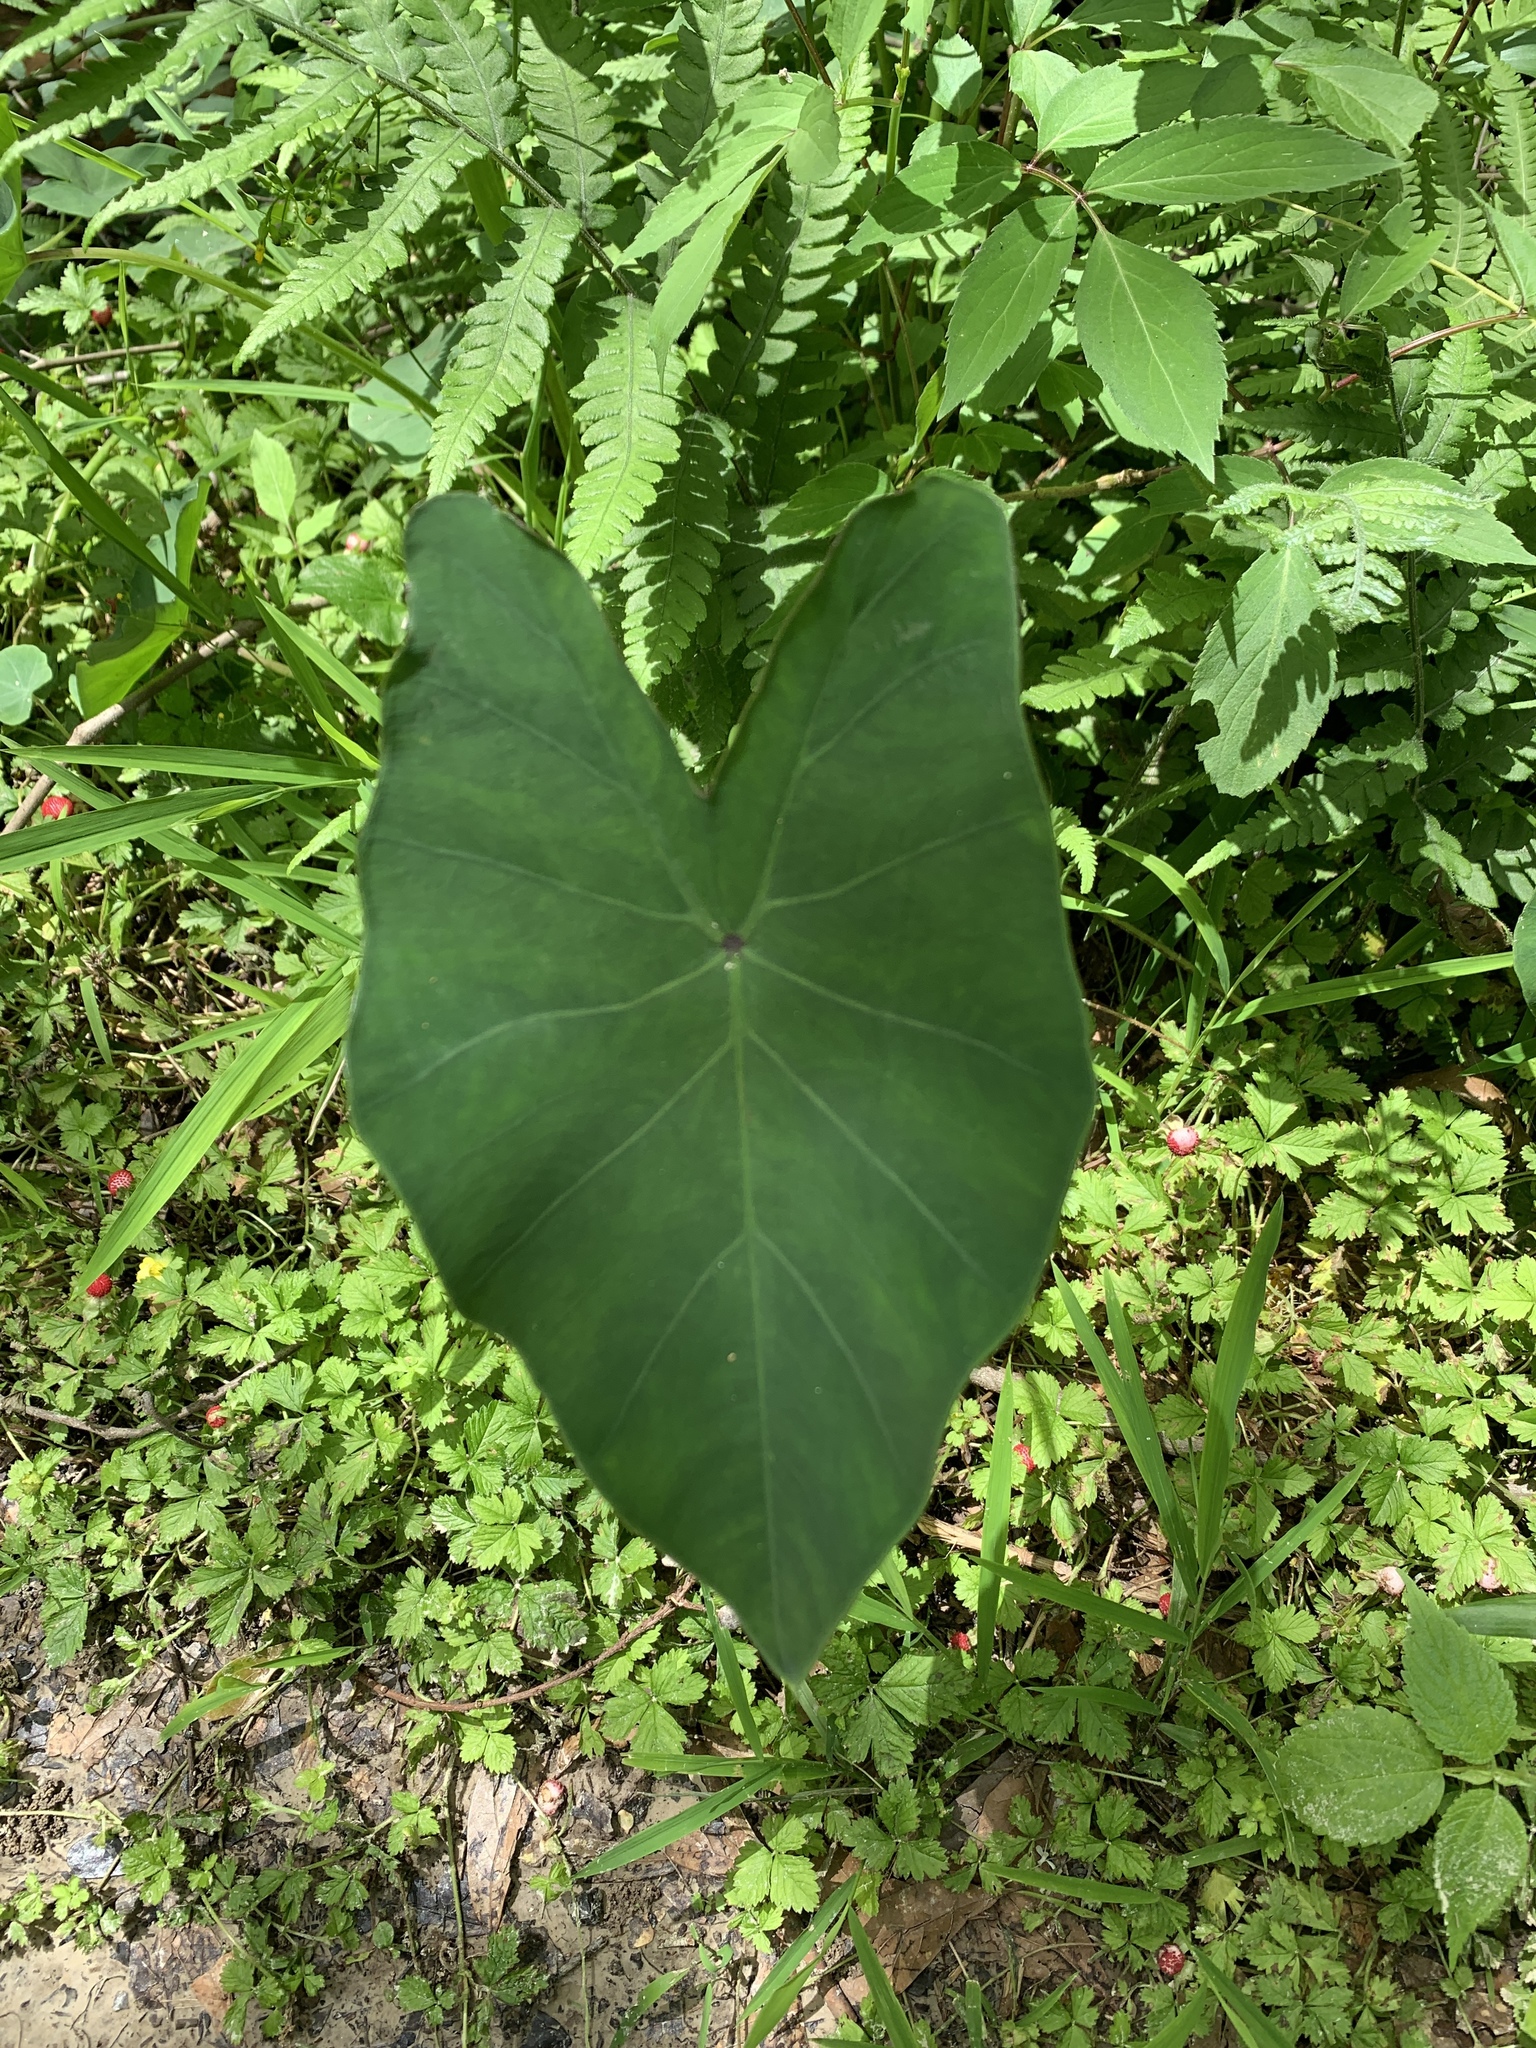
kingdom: Plantae
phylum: Tracheophyta
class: Liliopsida
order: Alismatales
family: Araceae
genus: Colocasia
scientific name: Colocasia esculenta
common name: Taro
